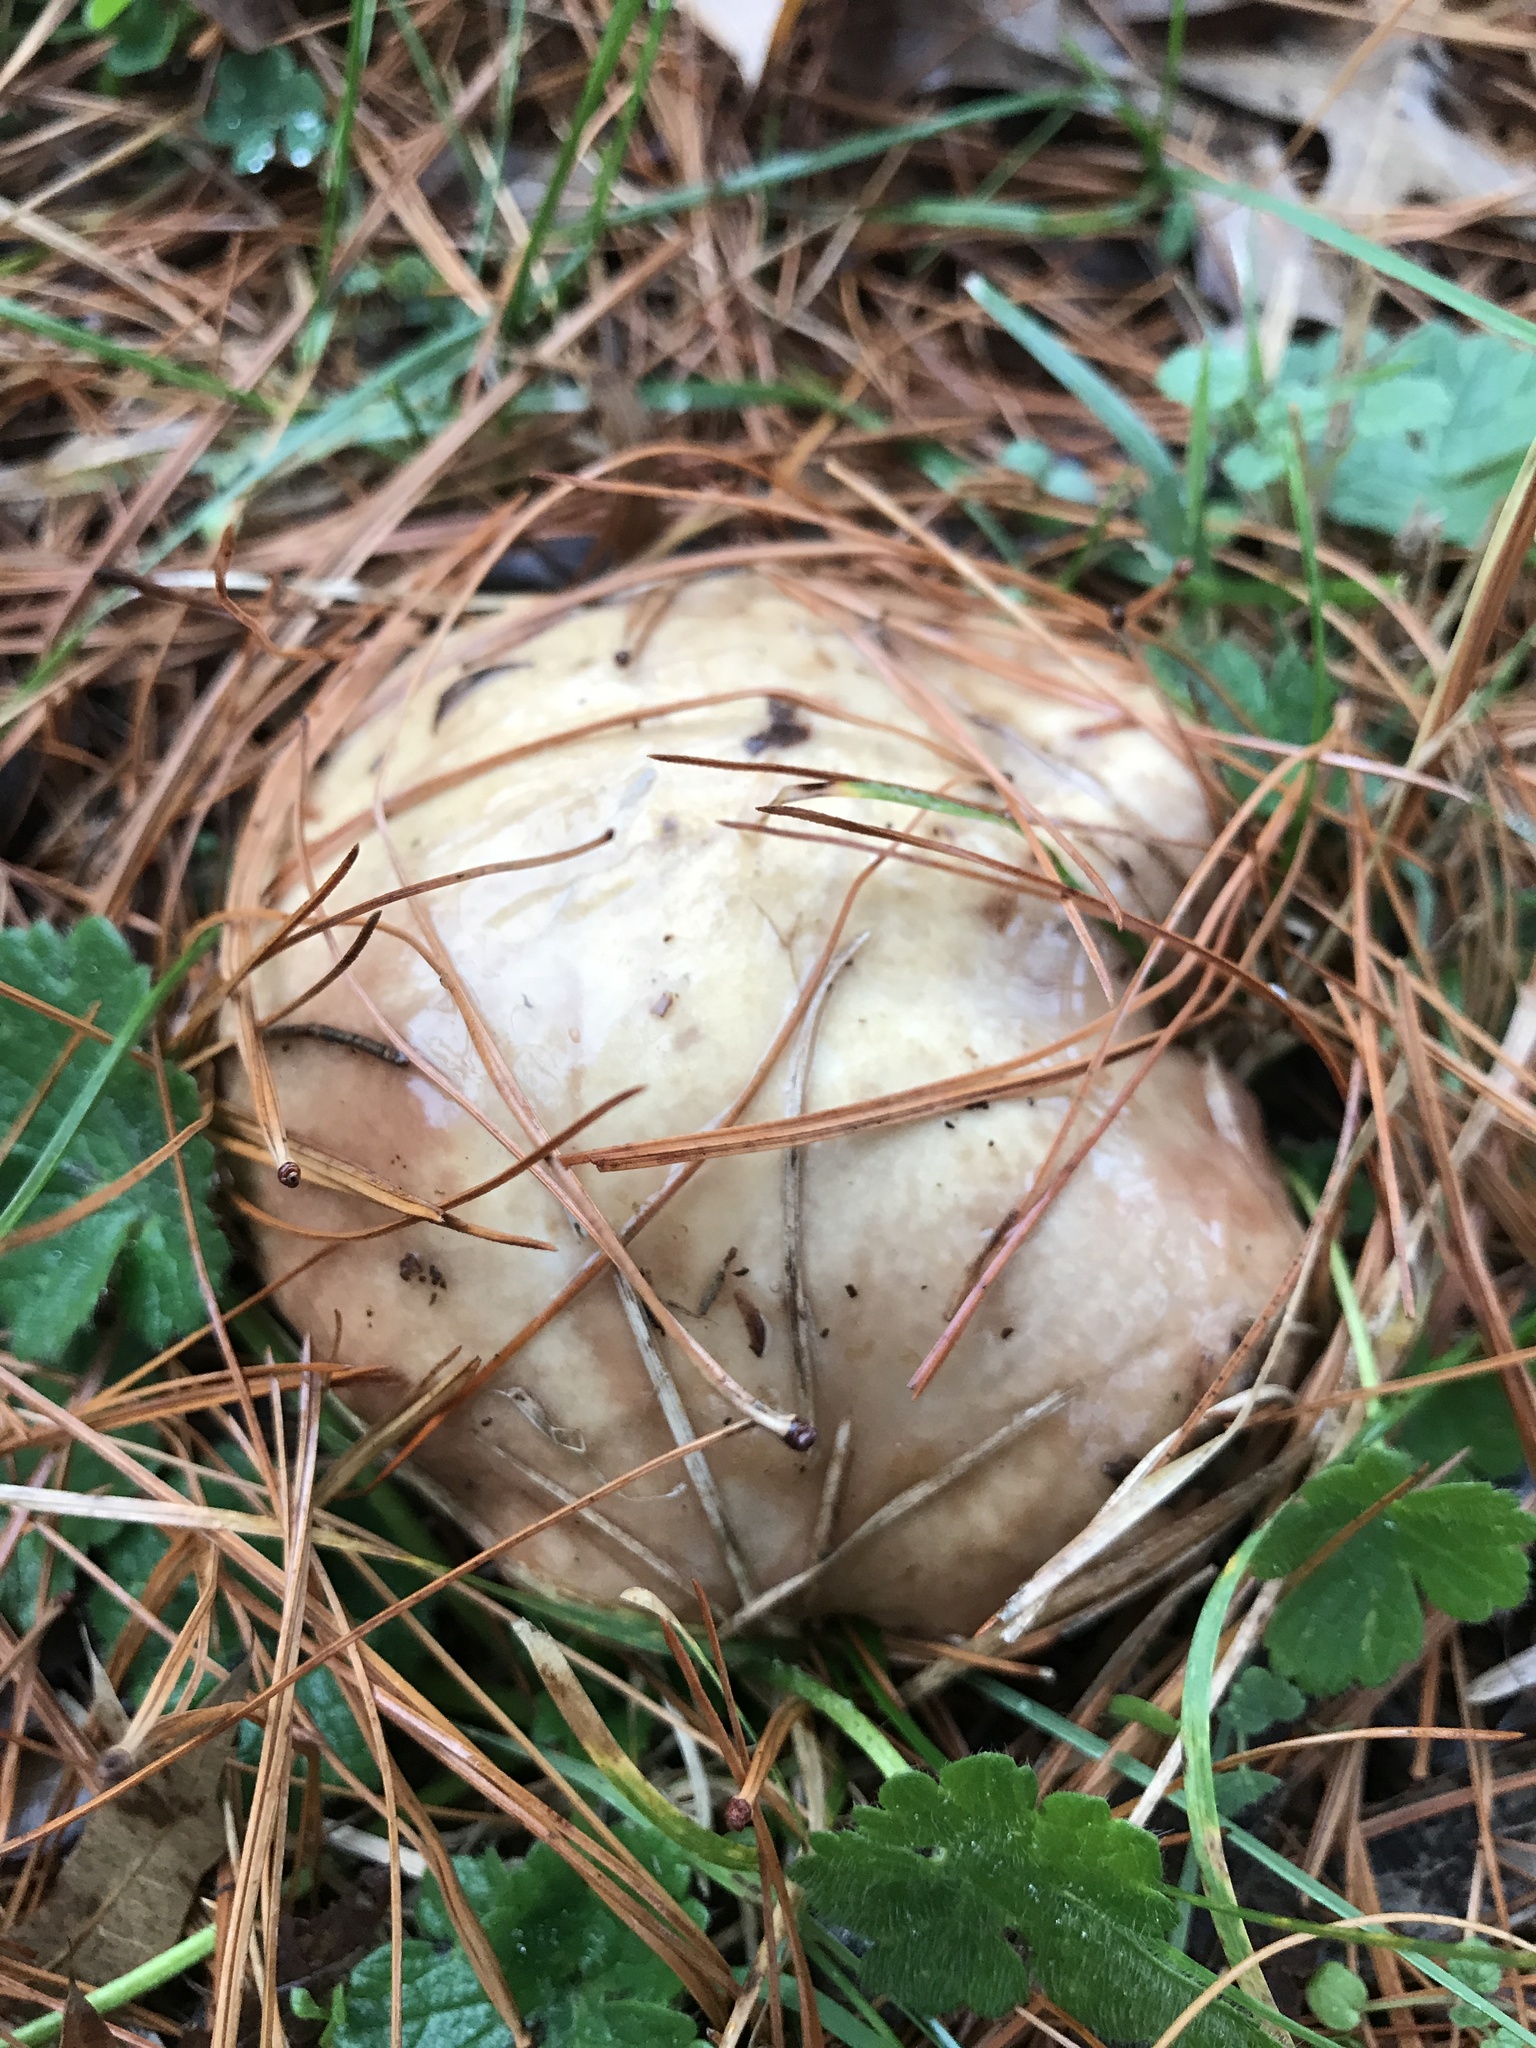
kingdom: Fungi
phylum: Basidiomycota
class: Agaricomycetes
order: Boletales
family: Suillaceae
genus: Fuscoboletinus
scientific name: Fuscoboletinus weaverae
